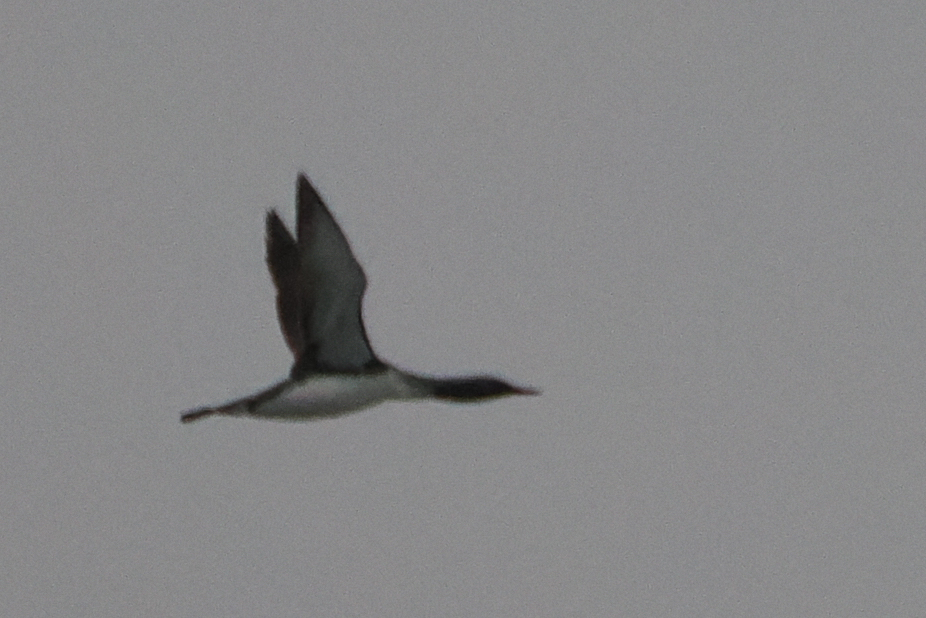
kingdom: Animalia
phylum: Chordata
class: Aves
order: Gaviiformes
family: Gaviidae
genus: Gavia
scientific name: Gavia stellata
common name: Red-throated loon
